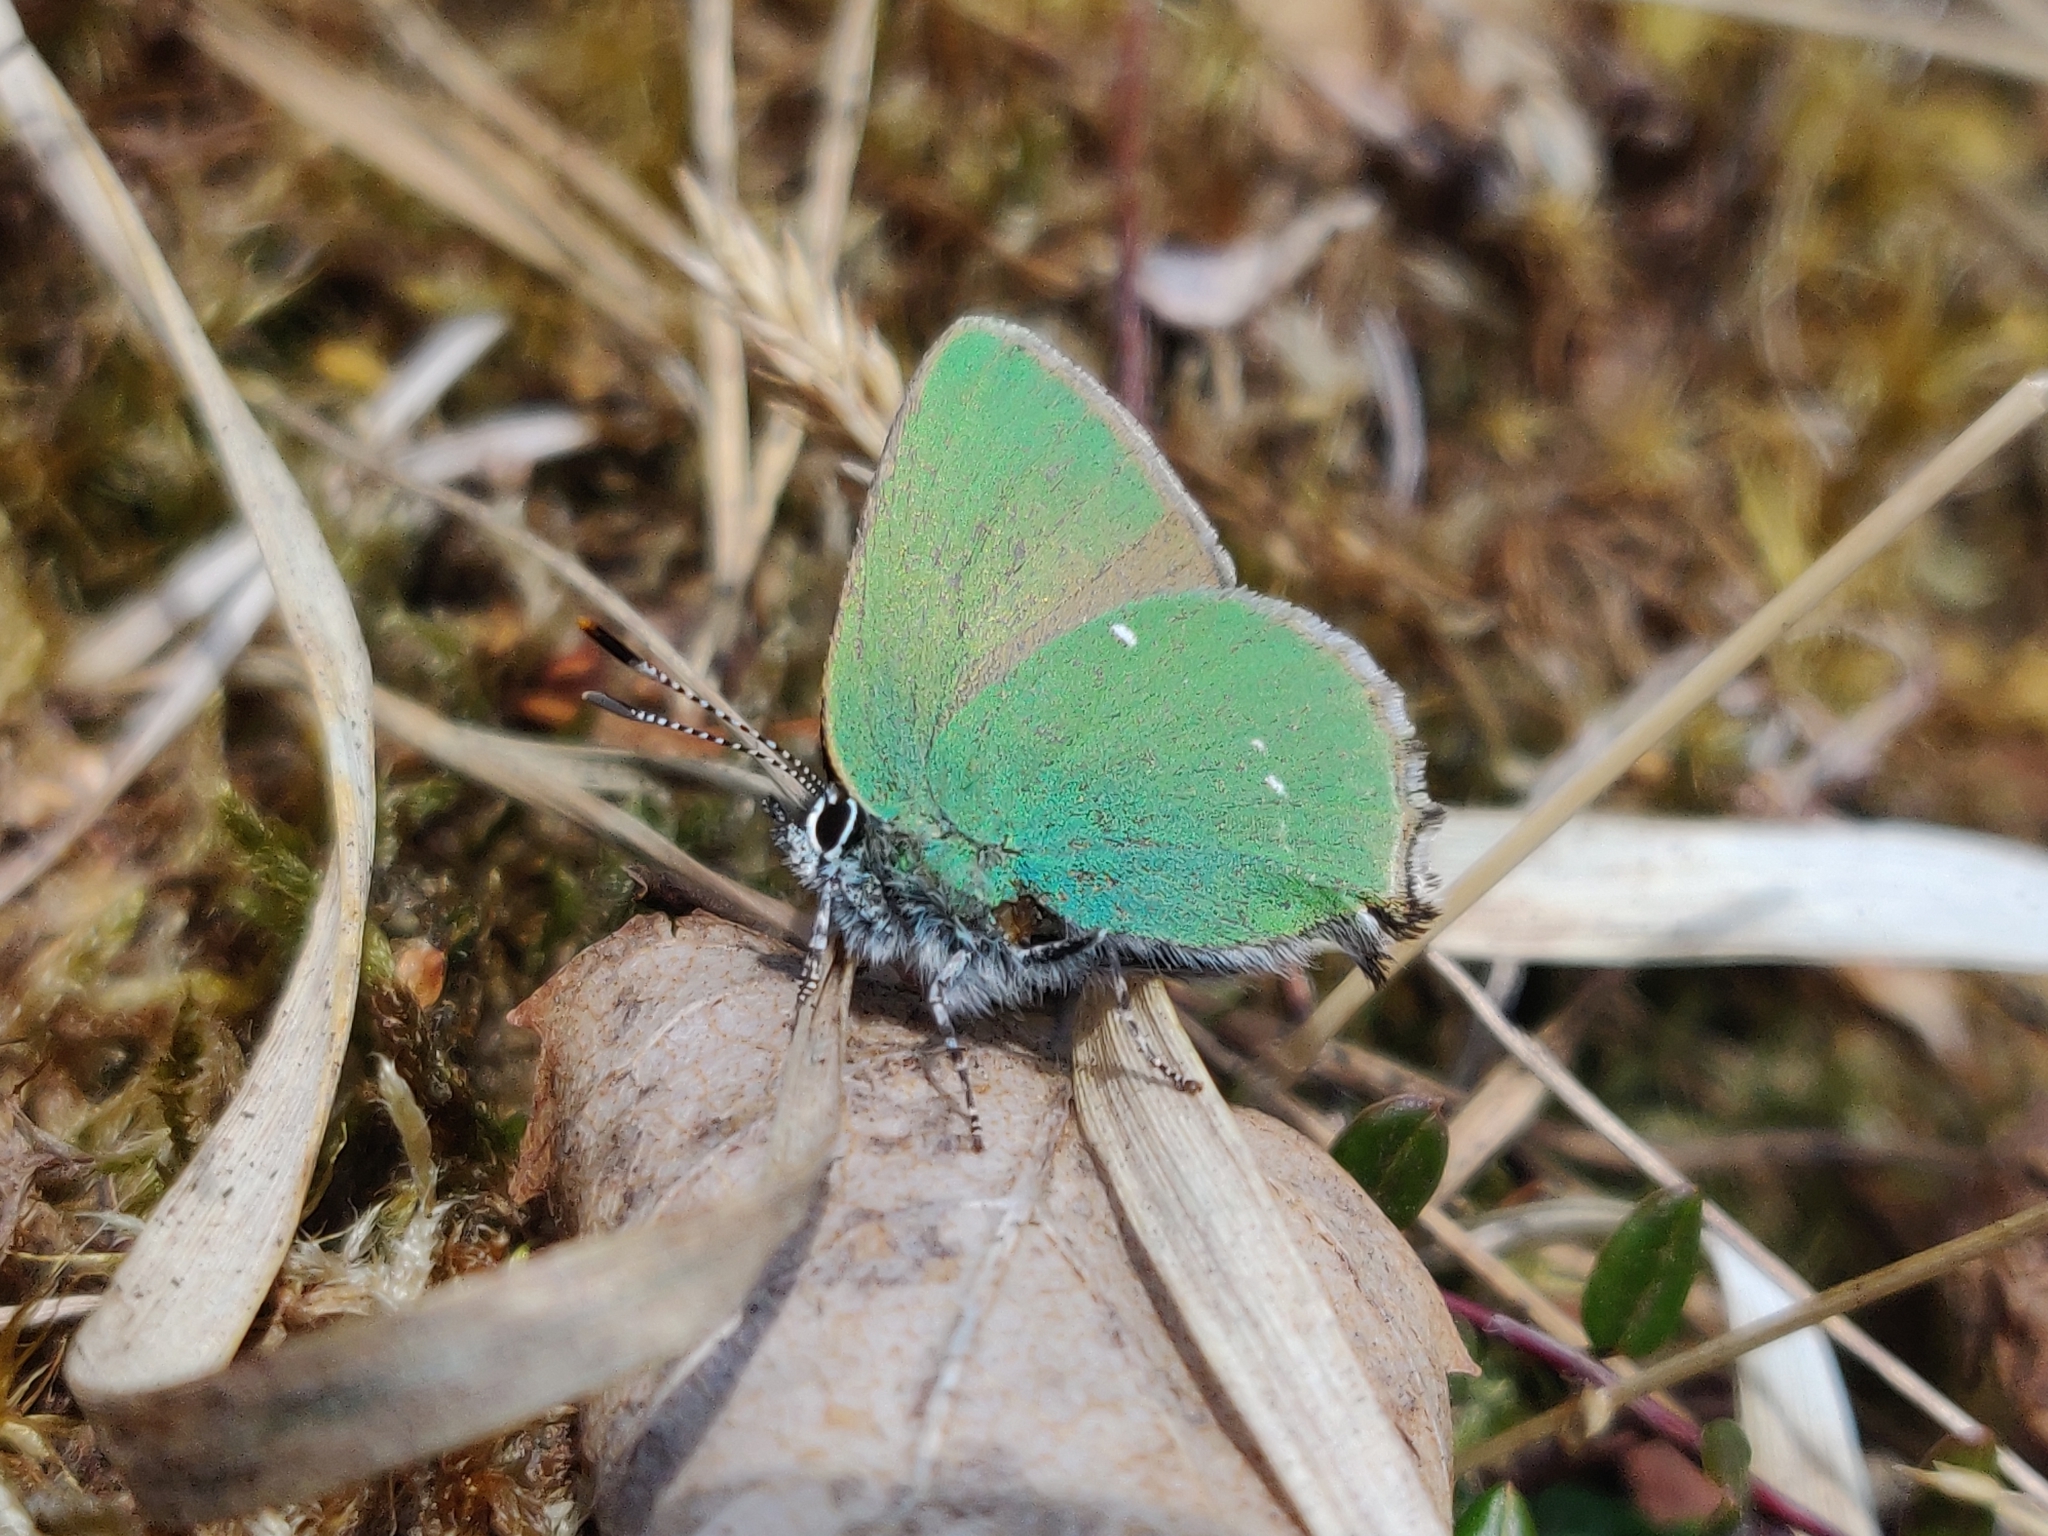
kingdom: Animalia
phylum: Arthropoda
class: Insecta
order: Lepidoptera
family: Lycaenidae
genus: Callophrys
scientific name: Callophrys rubi
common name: Green hairstreak
